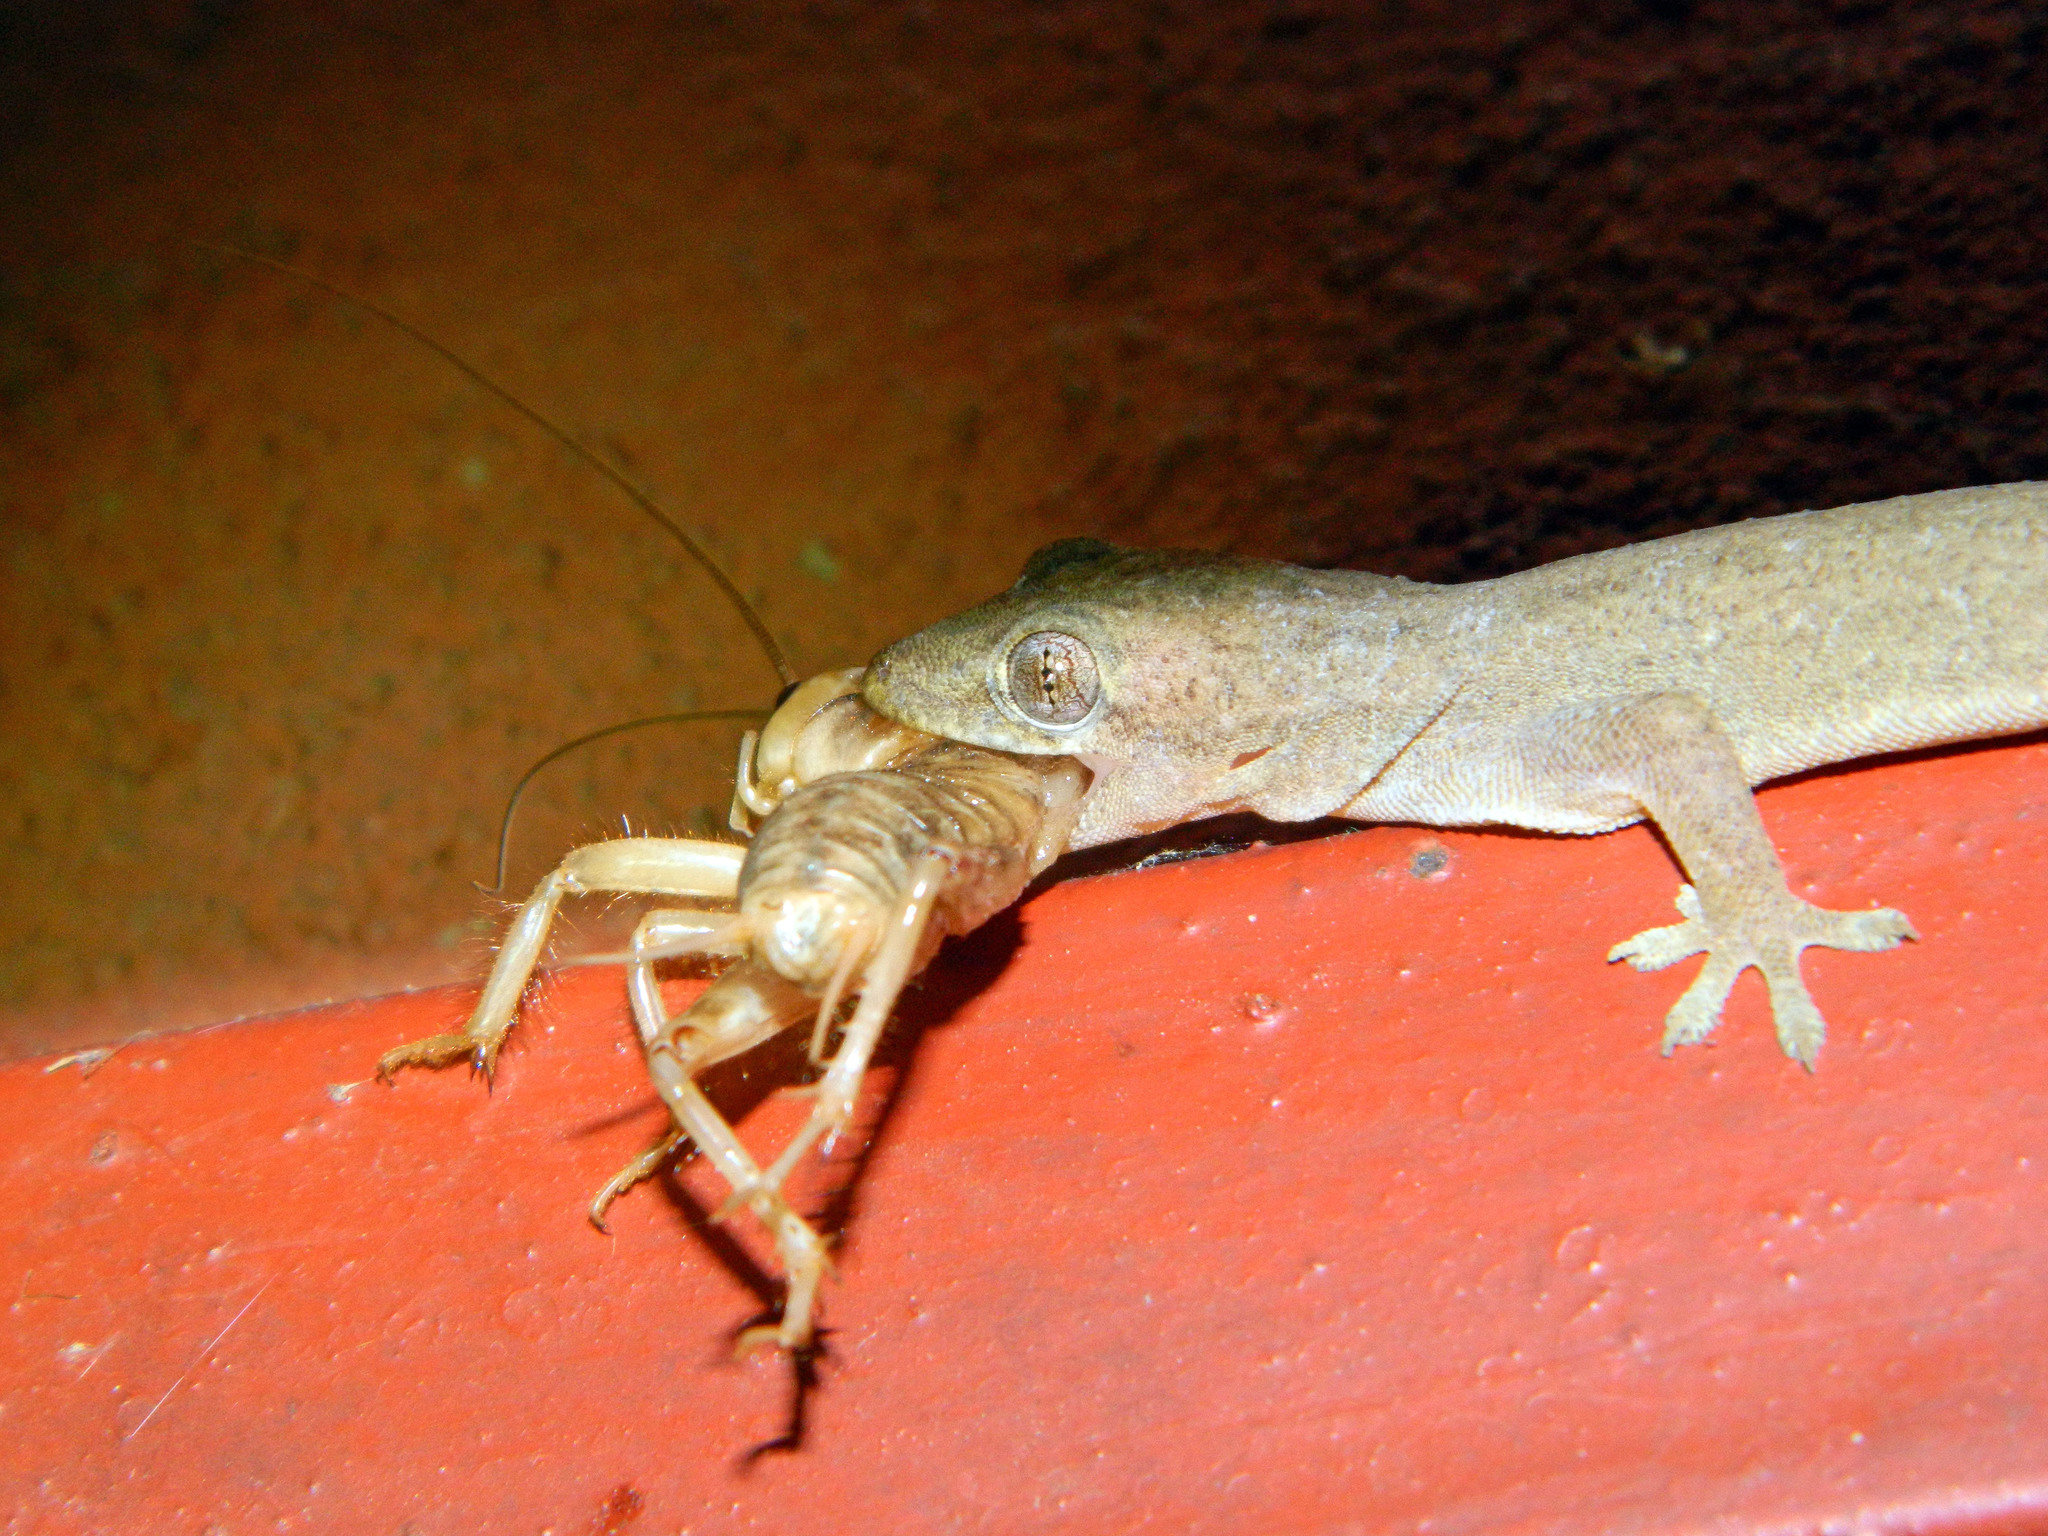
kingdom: Animalia
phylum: Chordata
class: Squamata
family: Gekkonidae
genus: Hemidactylus
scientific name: Hemidactylus frenatus
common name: Common house gecko
